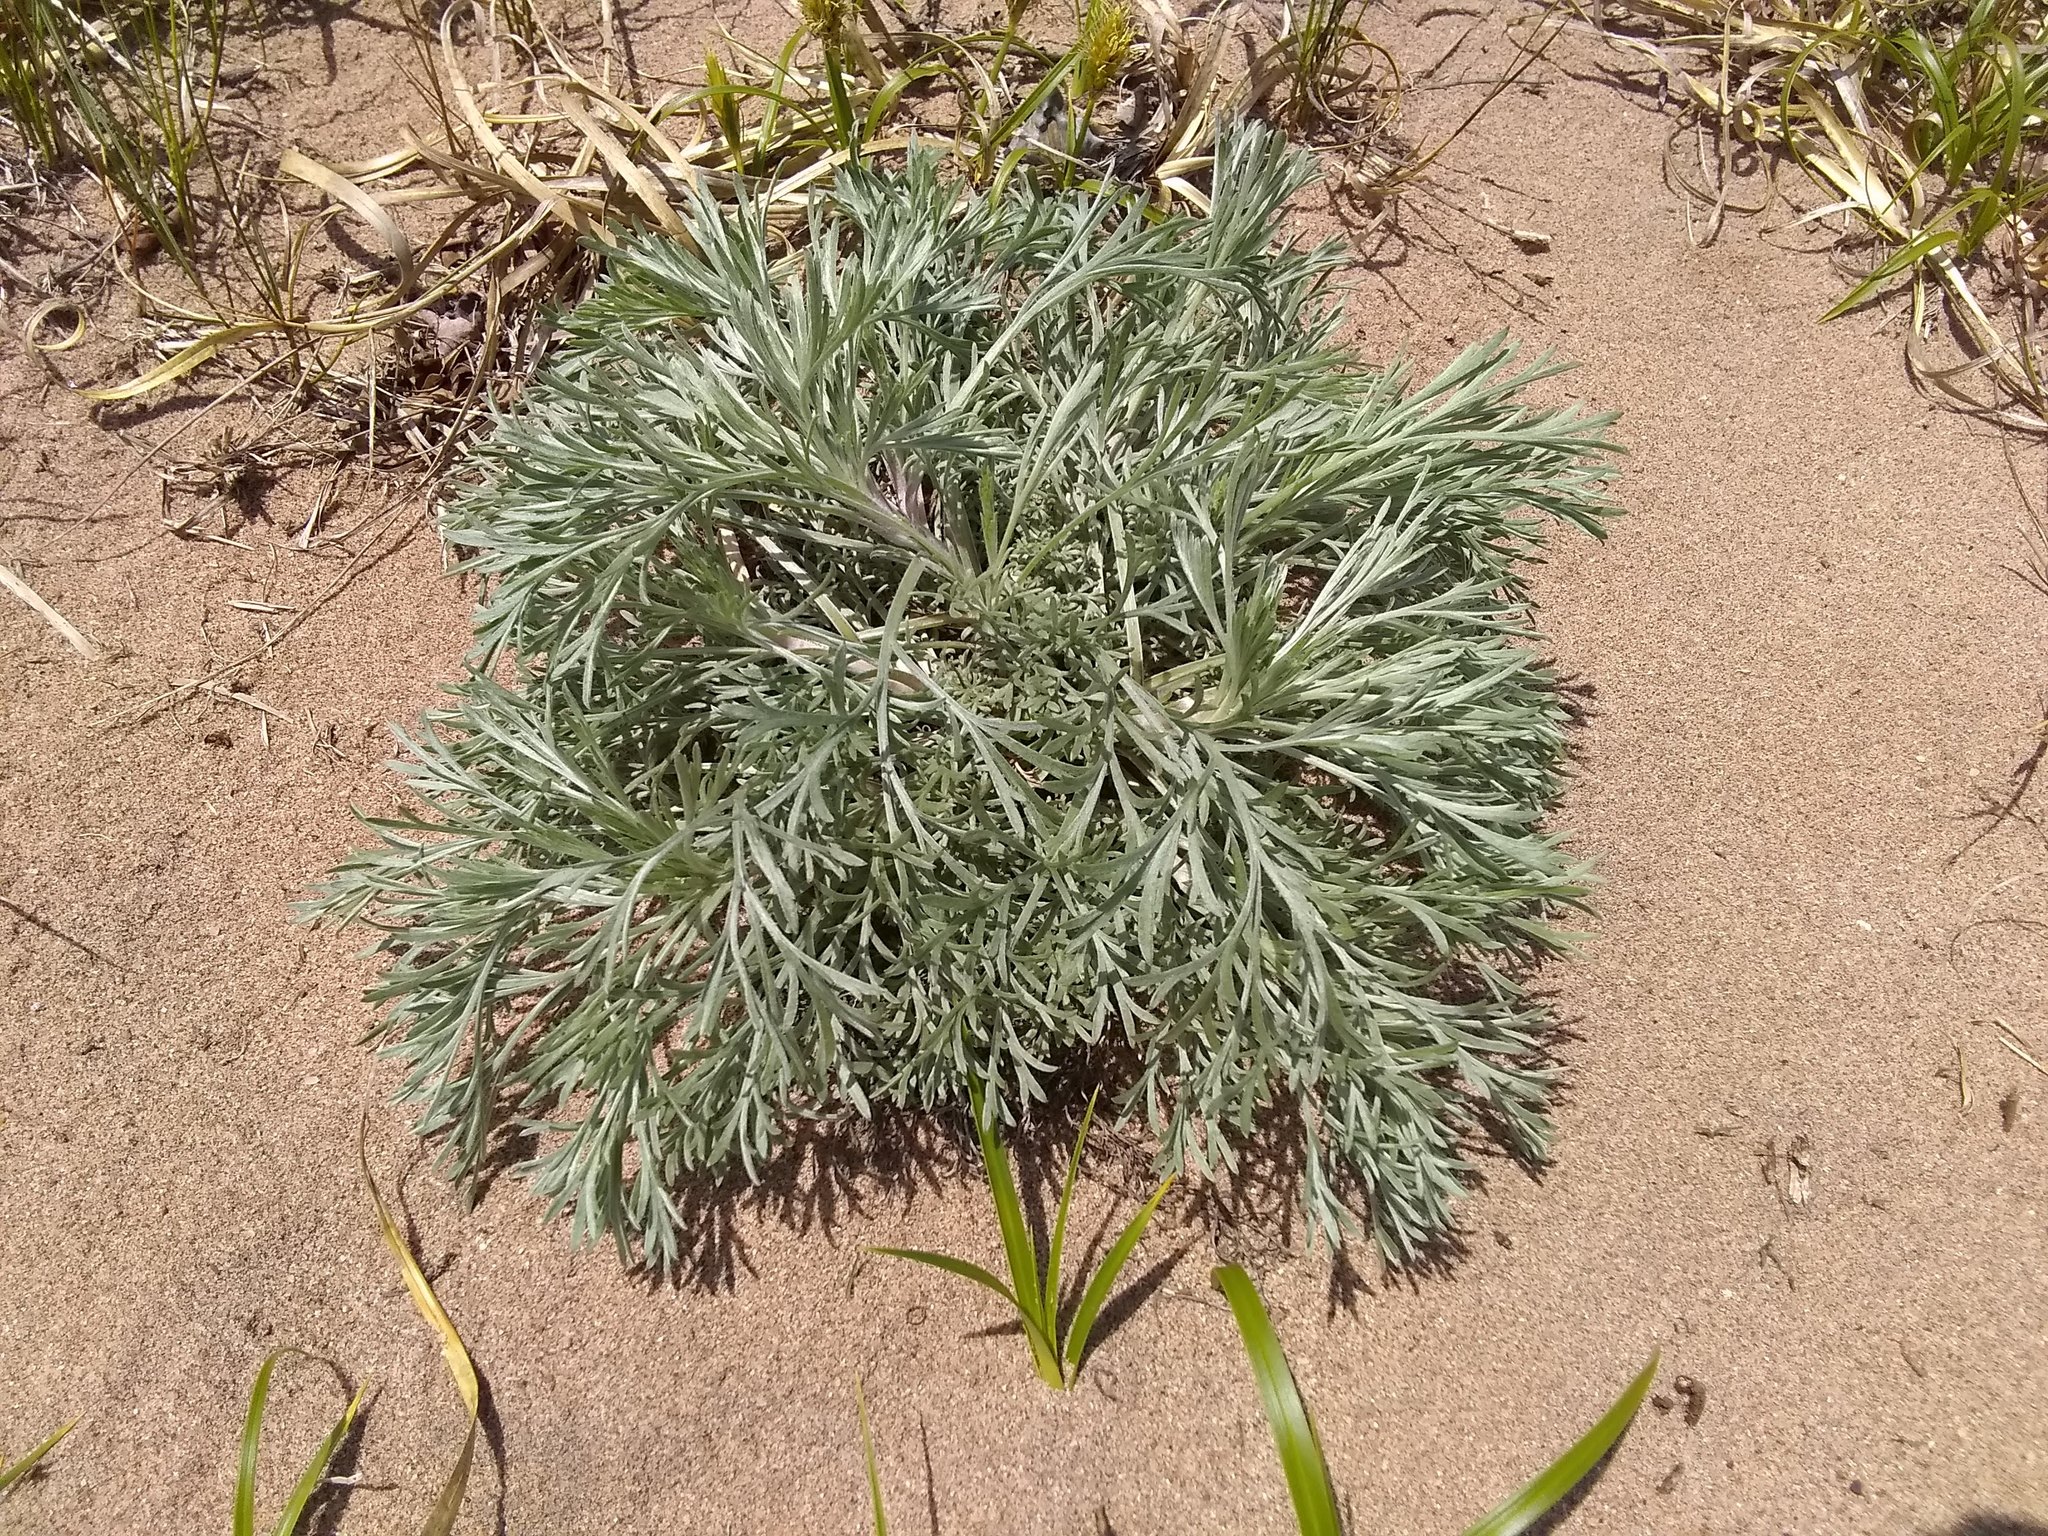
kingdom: Plantae
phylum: Tracheophyta
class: Magnoliopsida
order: Asterales
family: Asteraceae
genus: Artemisia
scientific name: Artemisia campestris
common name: Field wormwood
